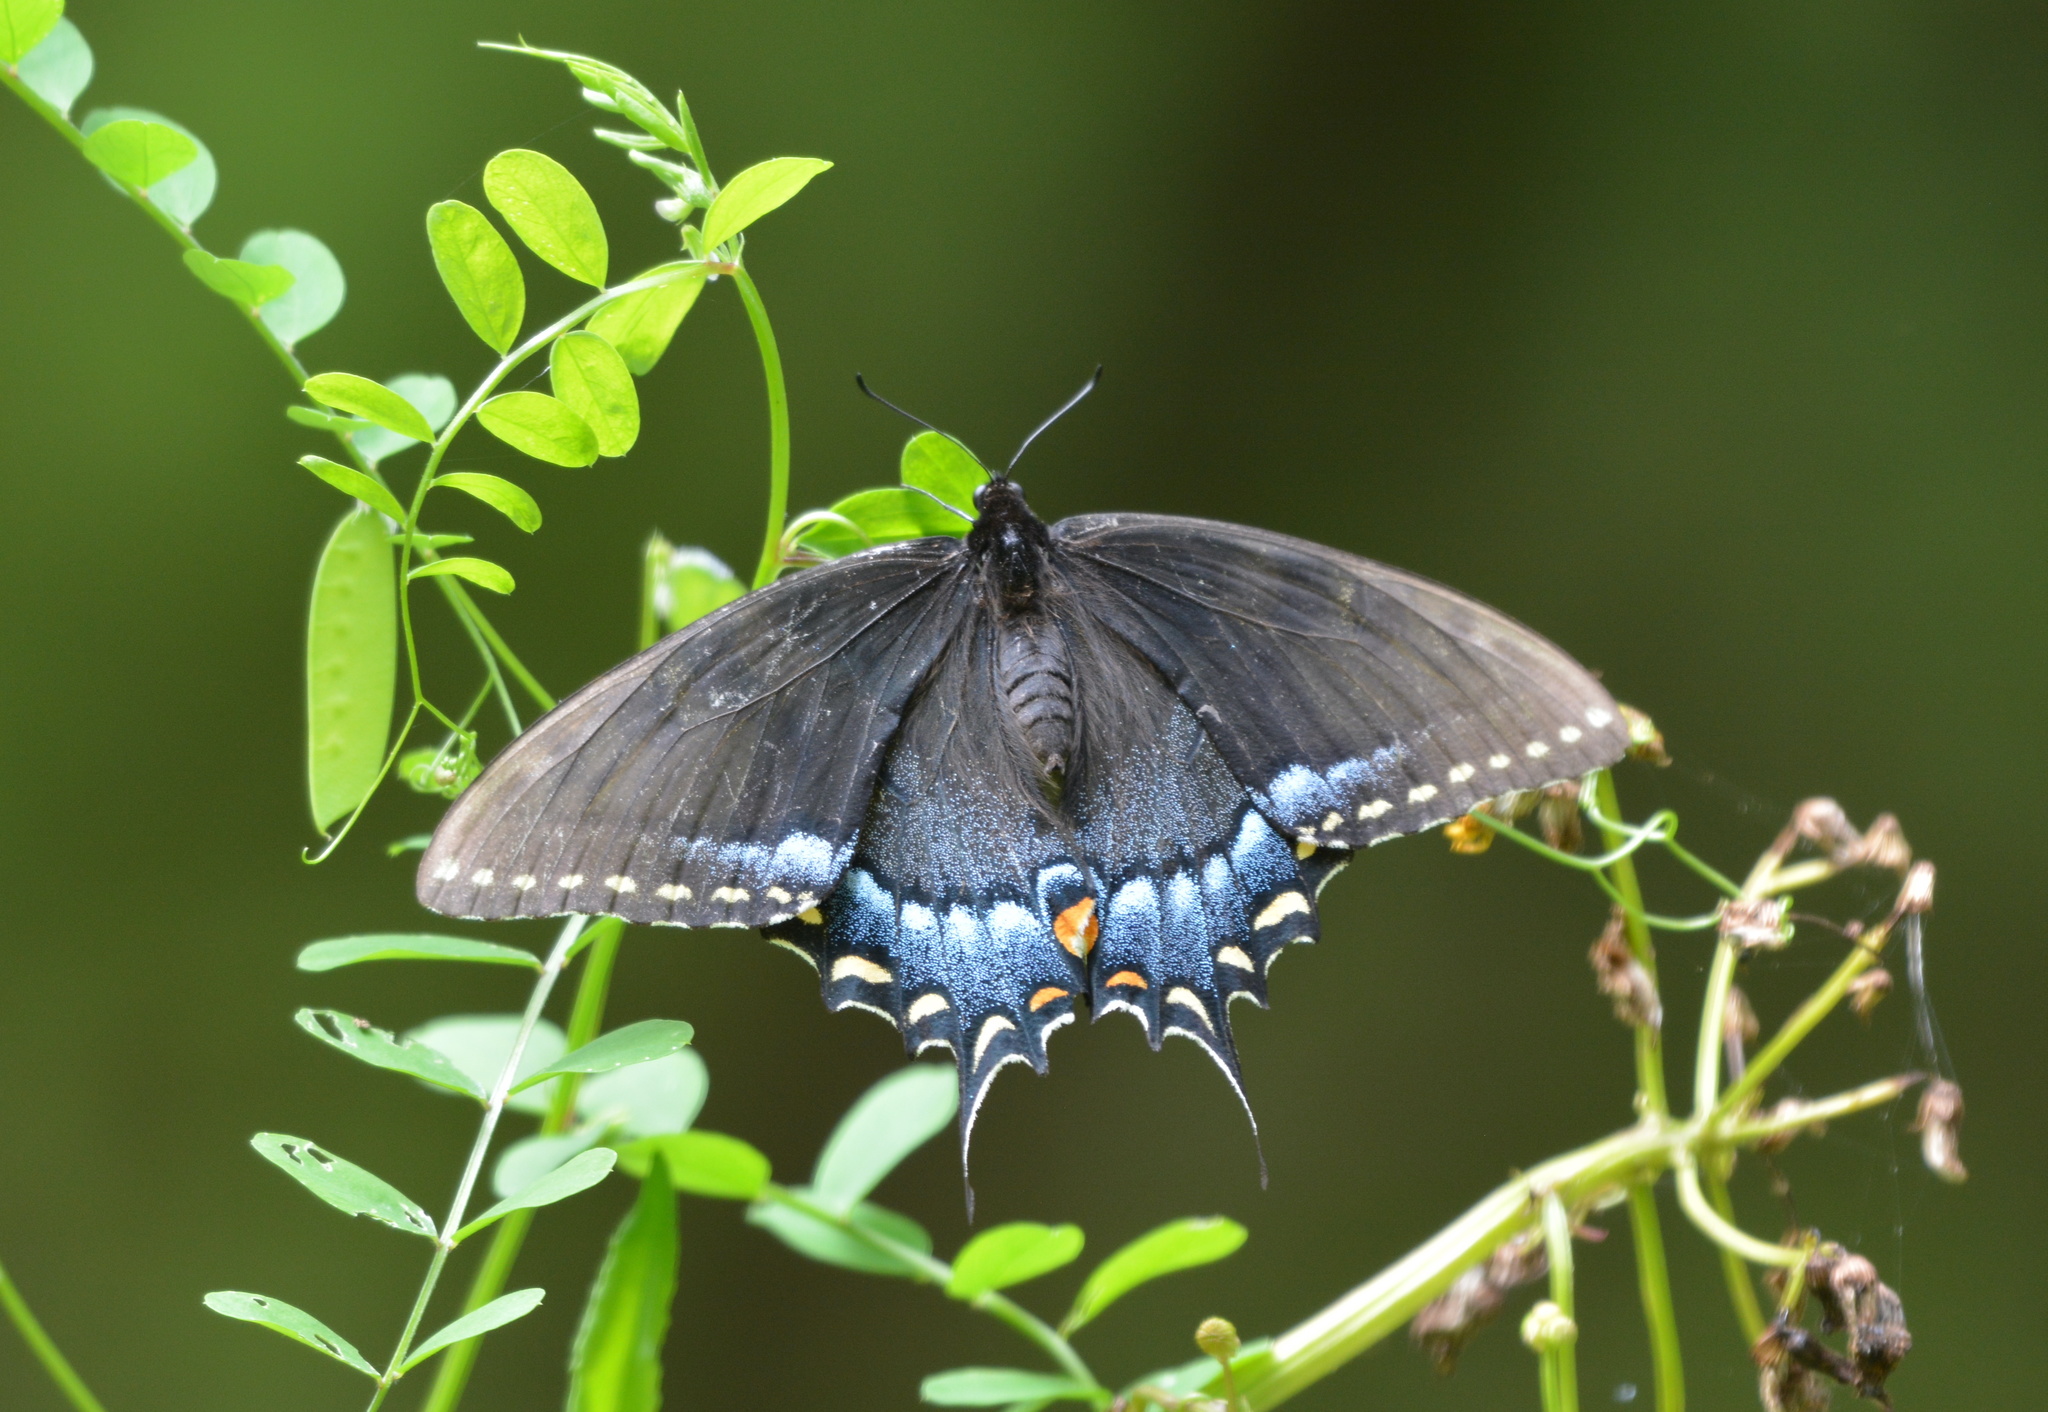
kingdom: Animalia
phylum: Arthropoda
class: Insecta
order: Lepidoptera
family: Papilionidae
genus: Papilio
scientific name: Papilio glaucus
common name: Tiger swallowtail
